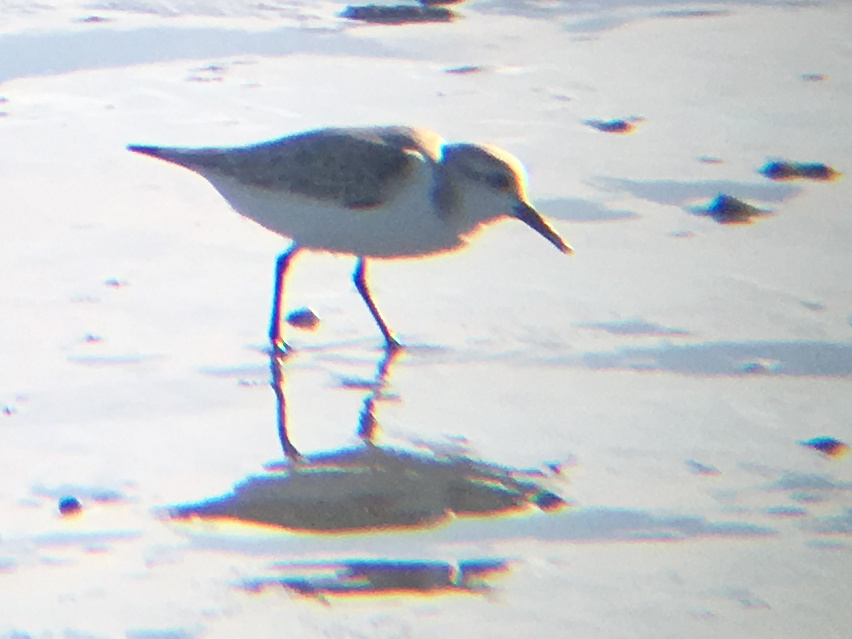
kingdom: Animalia
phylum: Chordata
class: Aves
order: Charadriiformes
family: Scolopacidae
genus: Calidris
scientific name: Calidris alba
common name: Sanderling
